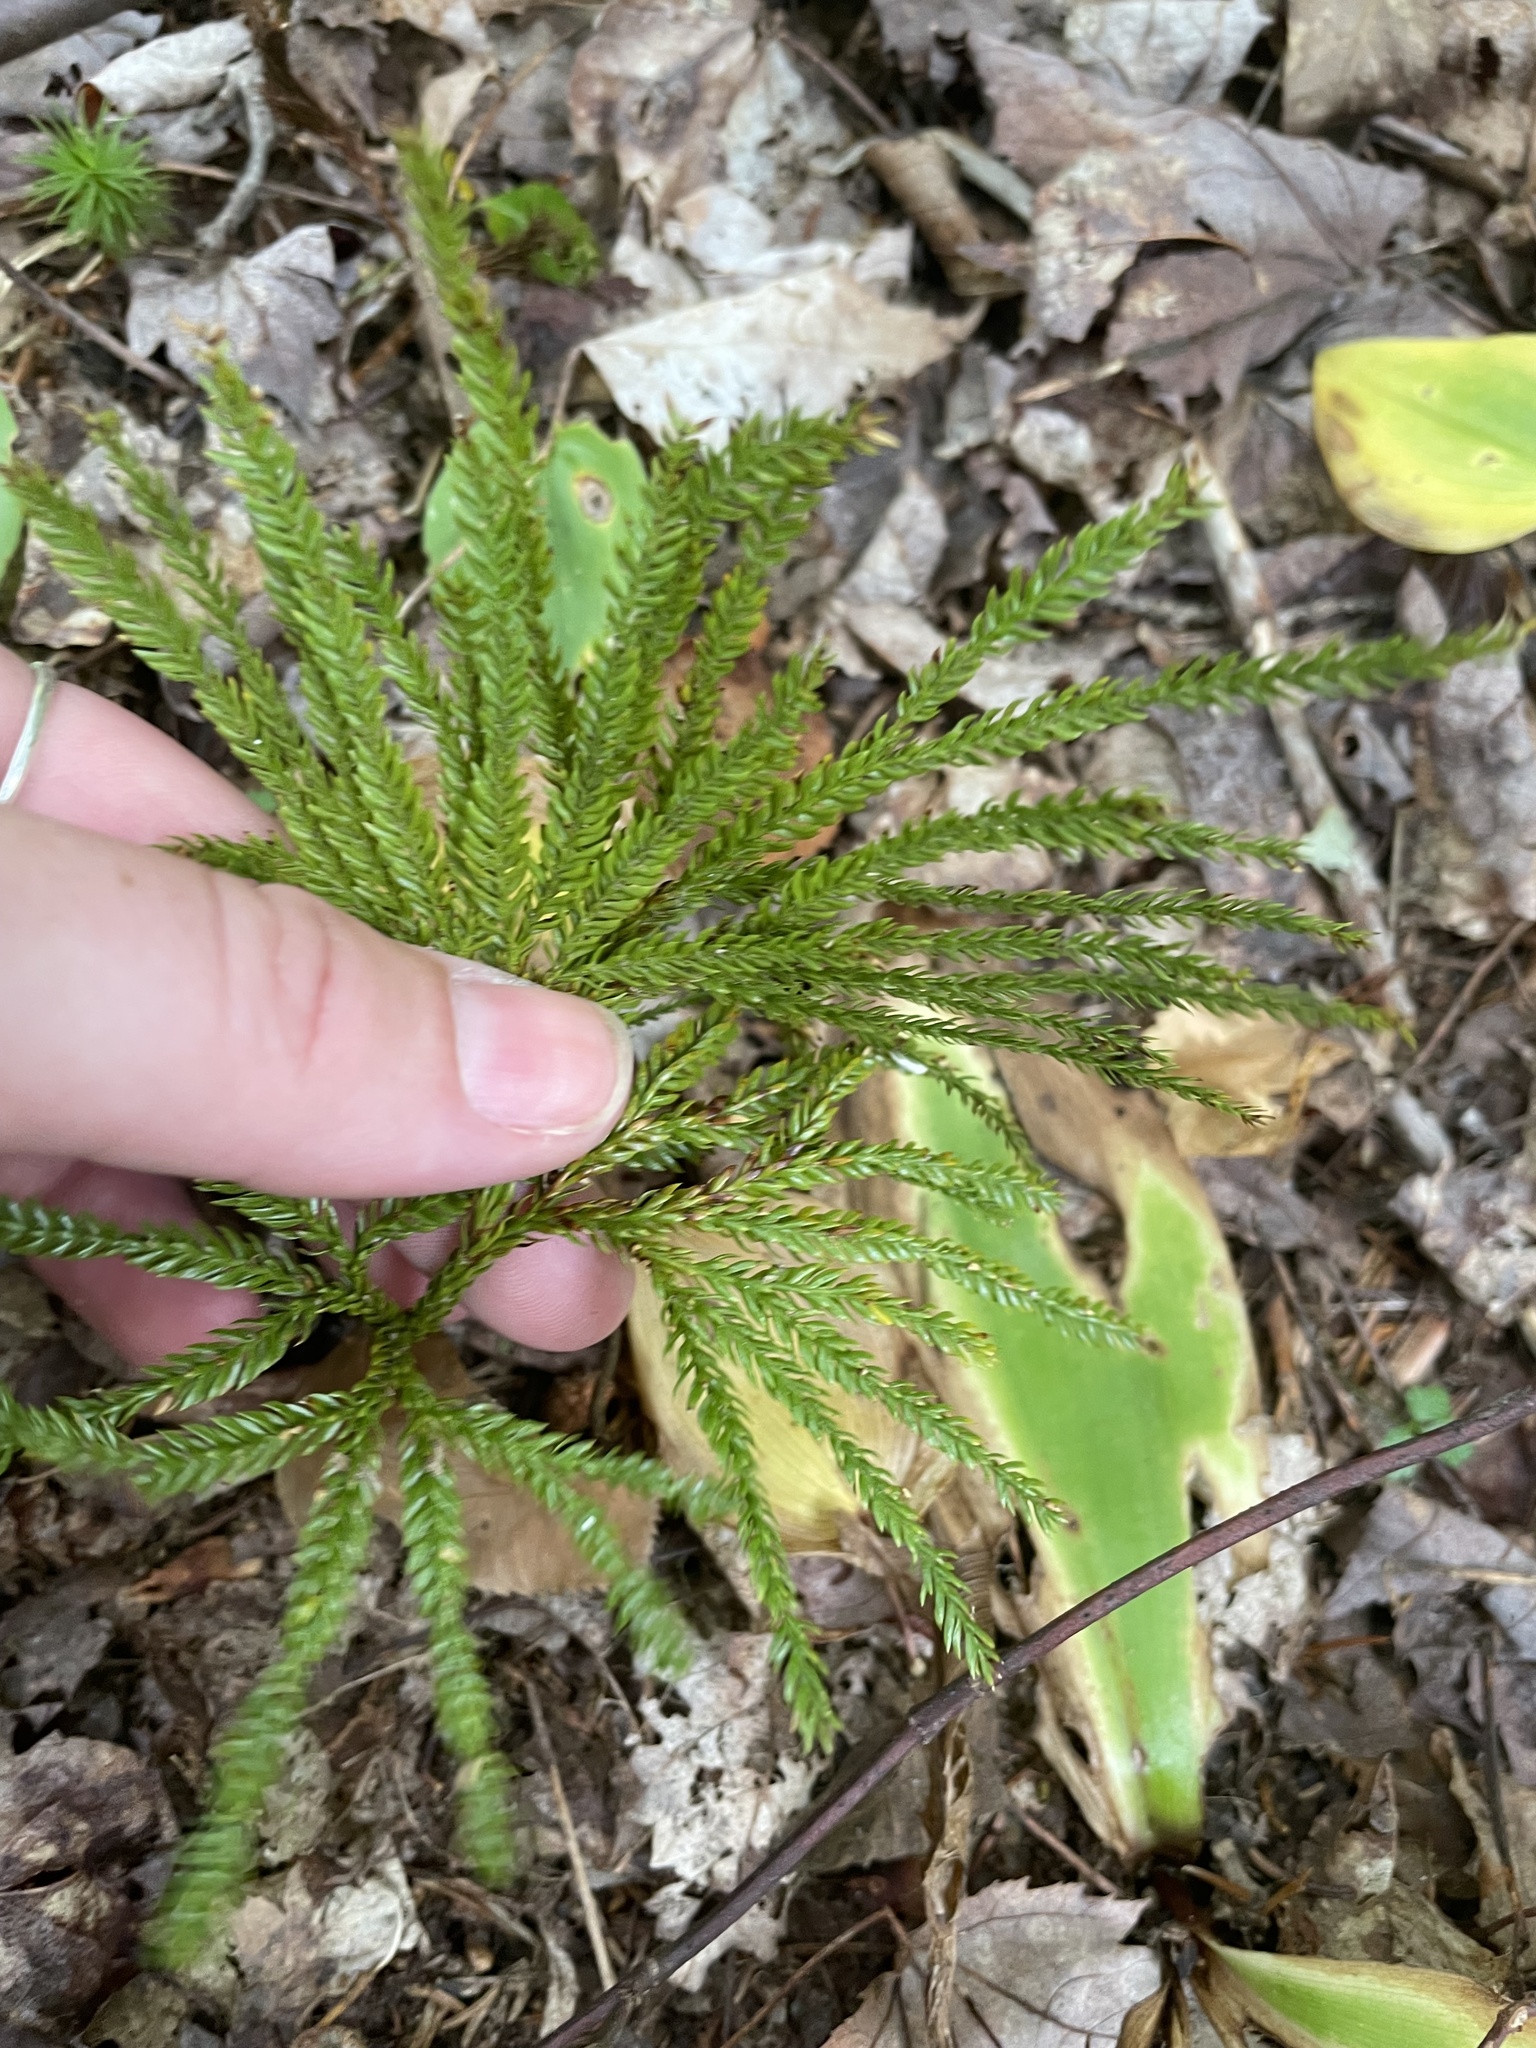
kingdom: Plantae
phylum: Tracheophyta
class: Lycopodiopsida
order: Lycopodiales
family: Lycopodiaceae
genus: Dendrolycopodium
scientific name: Dendrolycopodium obscurum
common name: Common ground-pine
